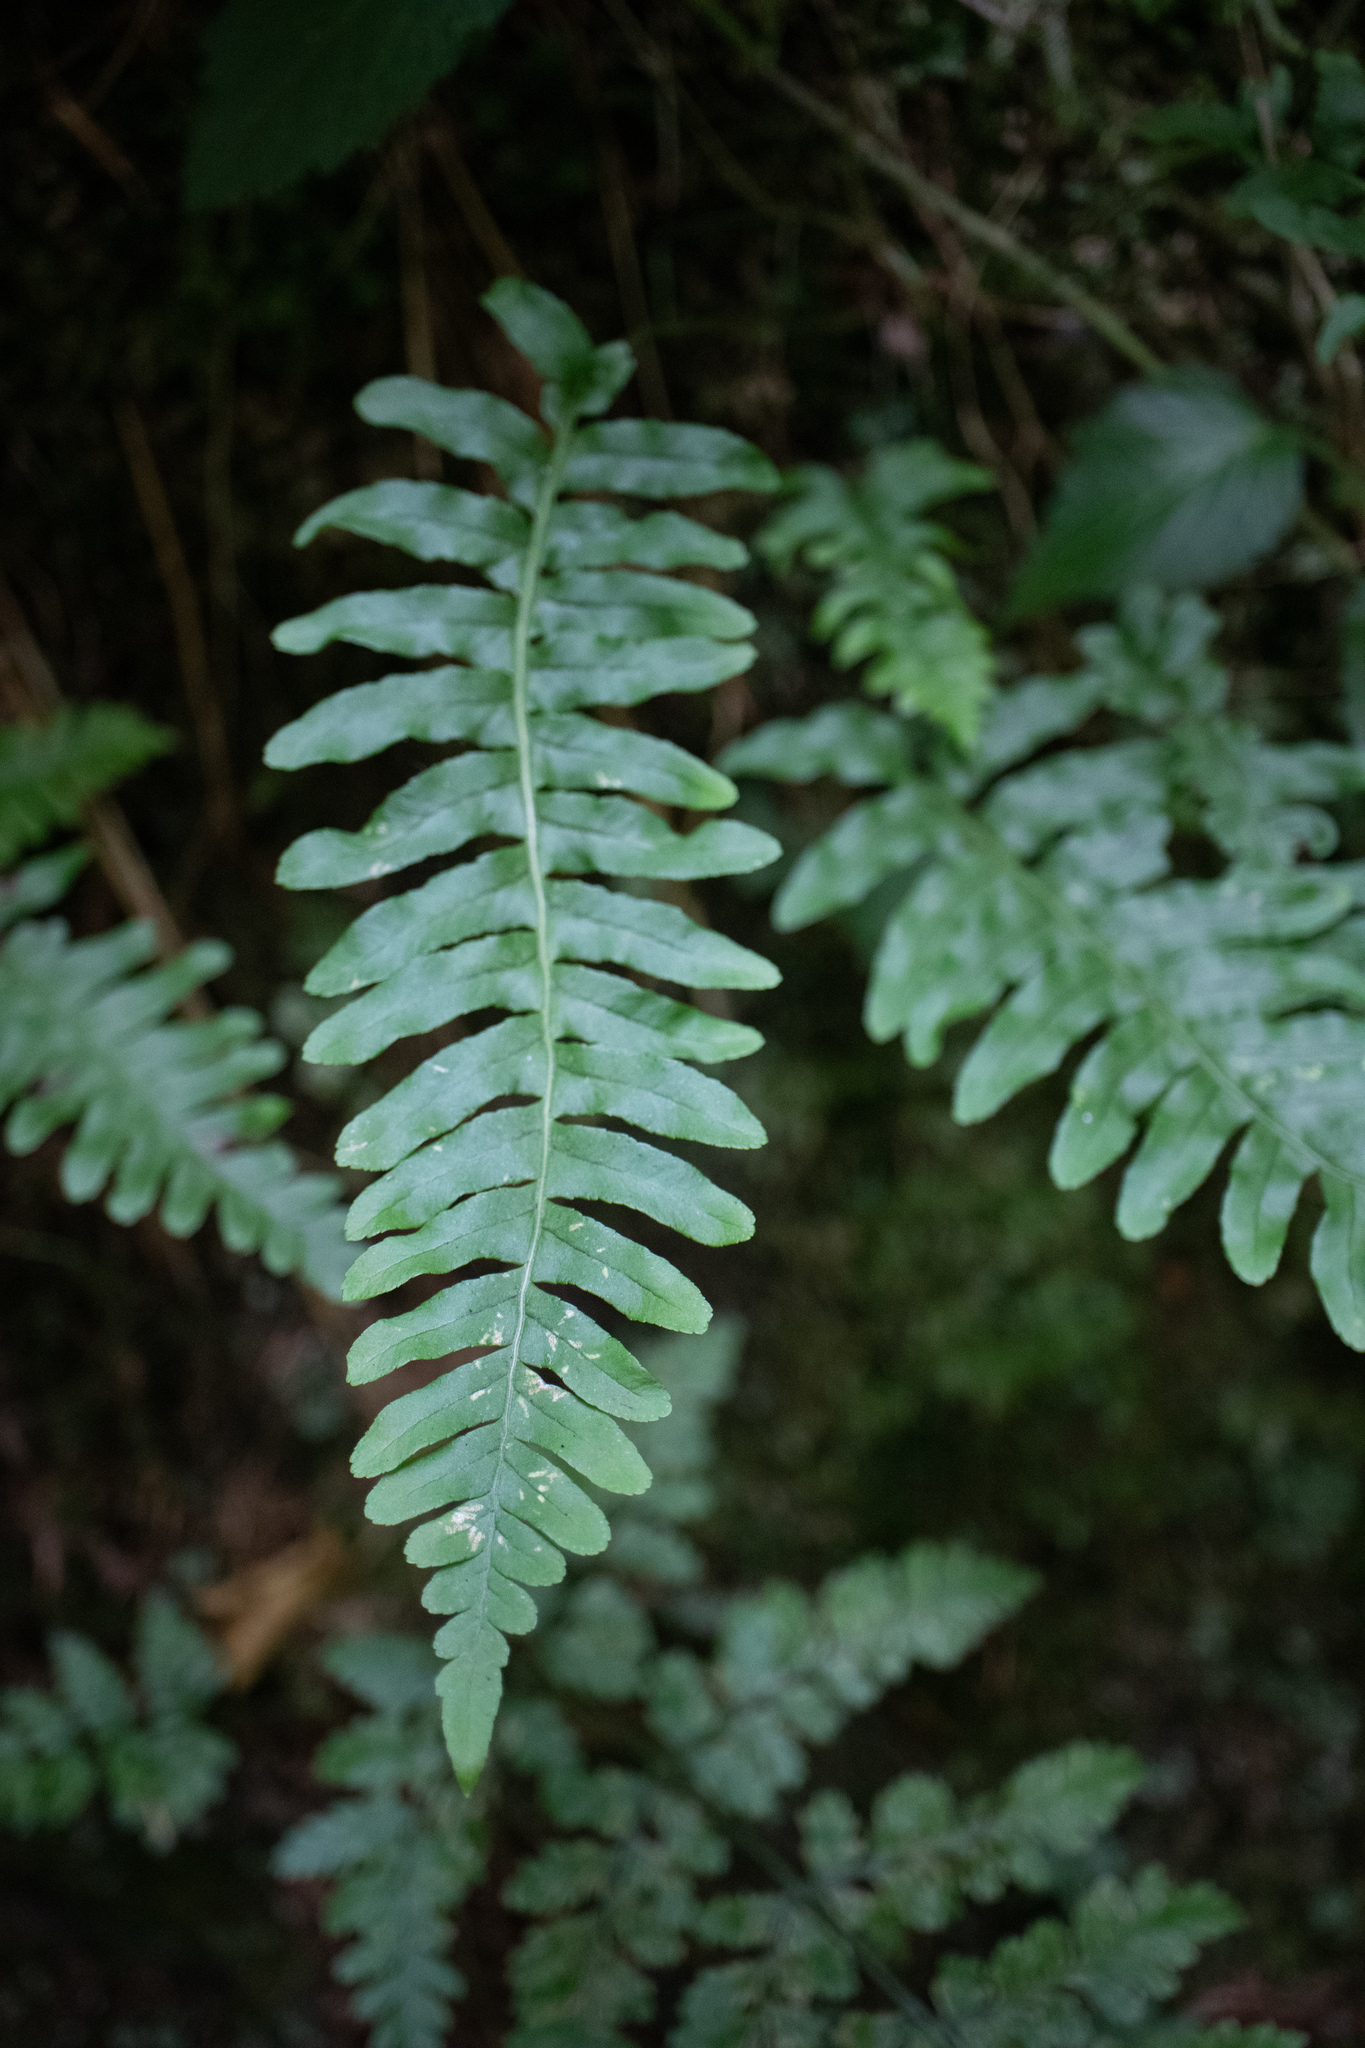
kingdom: Plantae
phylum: Tracheophyta
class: Polypodiopsida
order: Polypodiales
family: Polypodiaceae
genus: Polypodium
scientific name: Polypodium vulgare
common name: Common polypody
